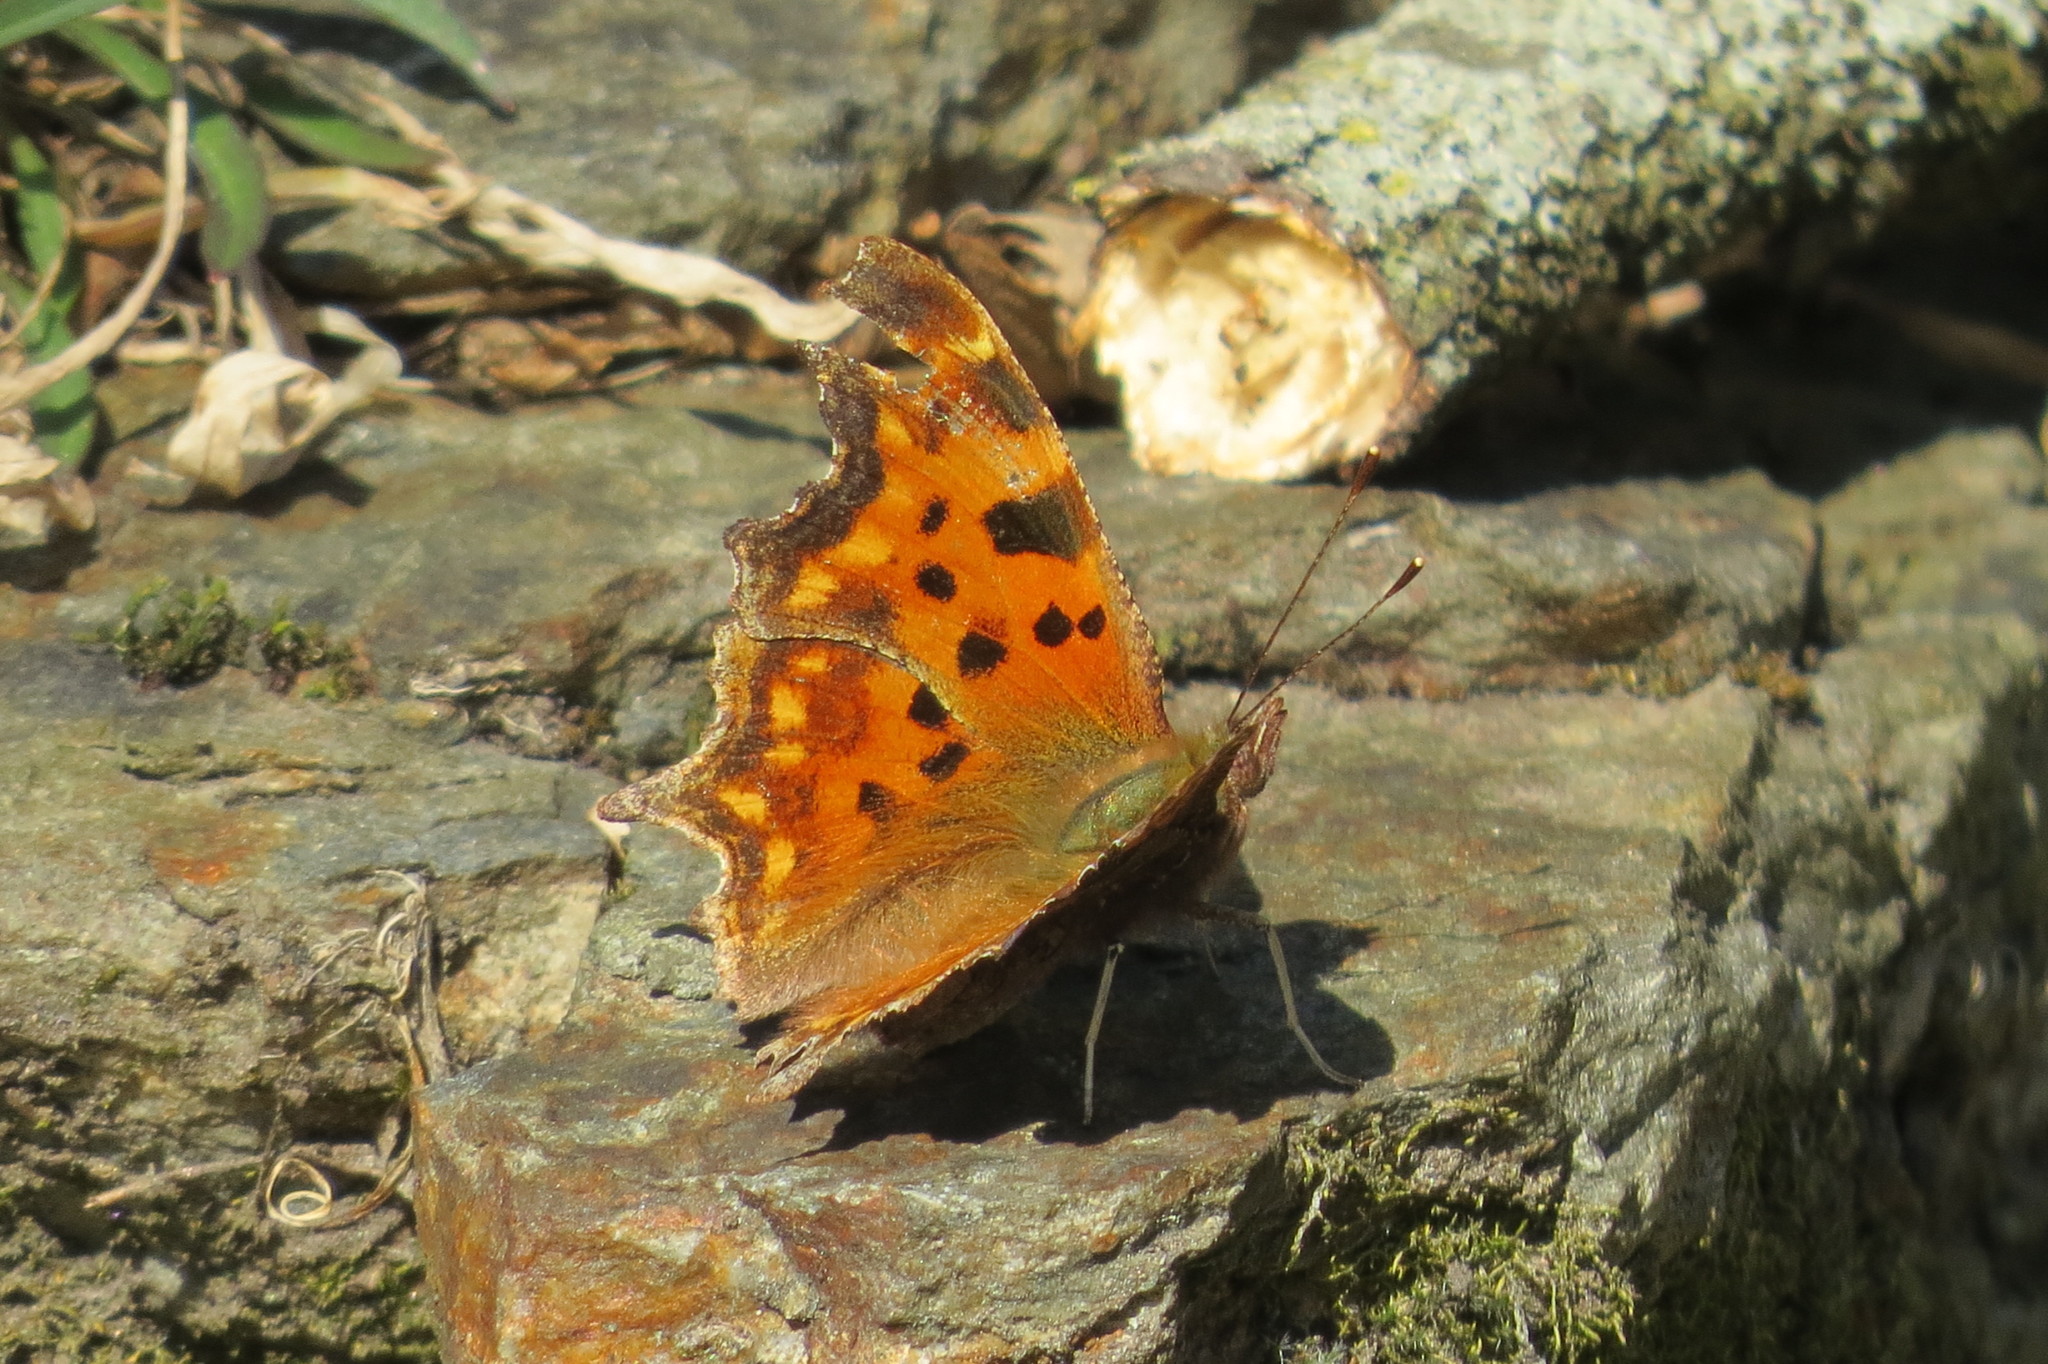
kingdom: Animalia
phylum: Arthropoda
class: Insecta
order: Lepidoptera
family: Nymphalidae
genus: Polygonia
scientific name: Polygonia c-album
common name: Comma
